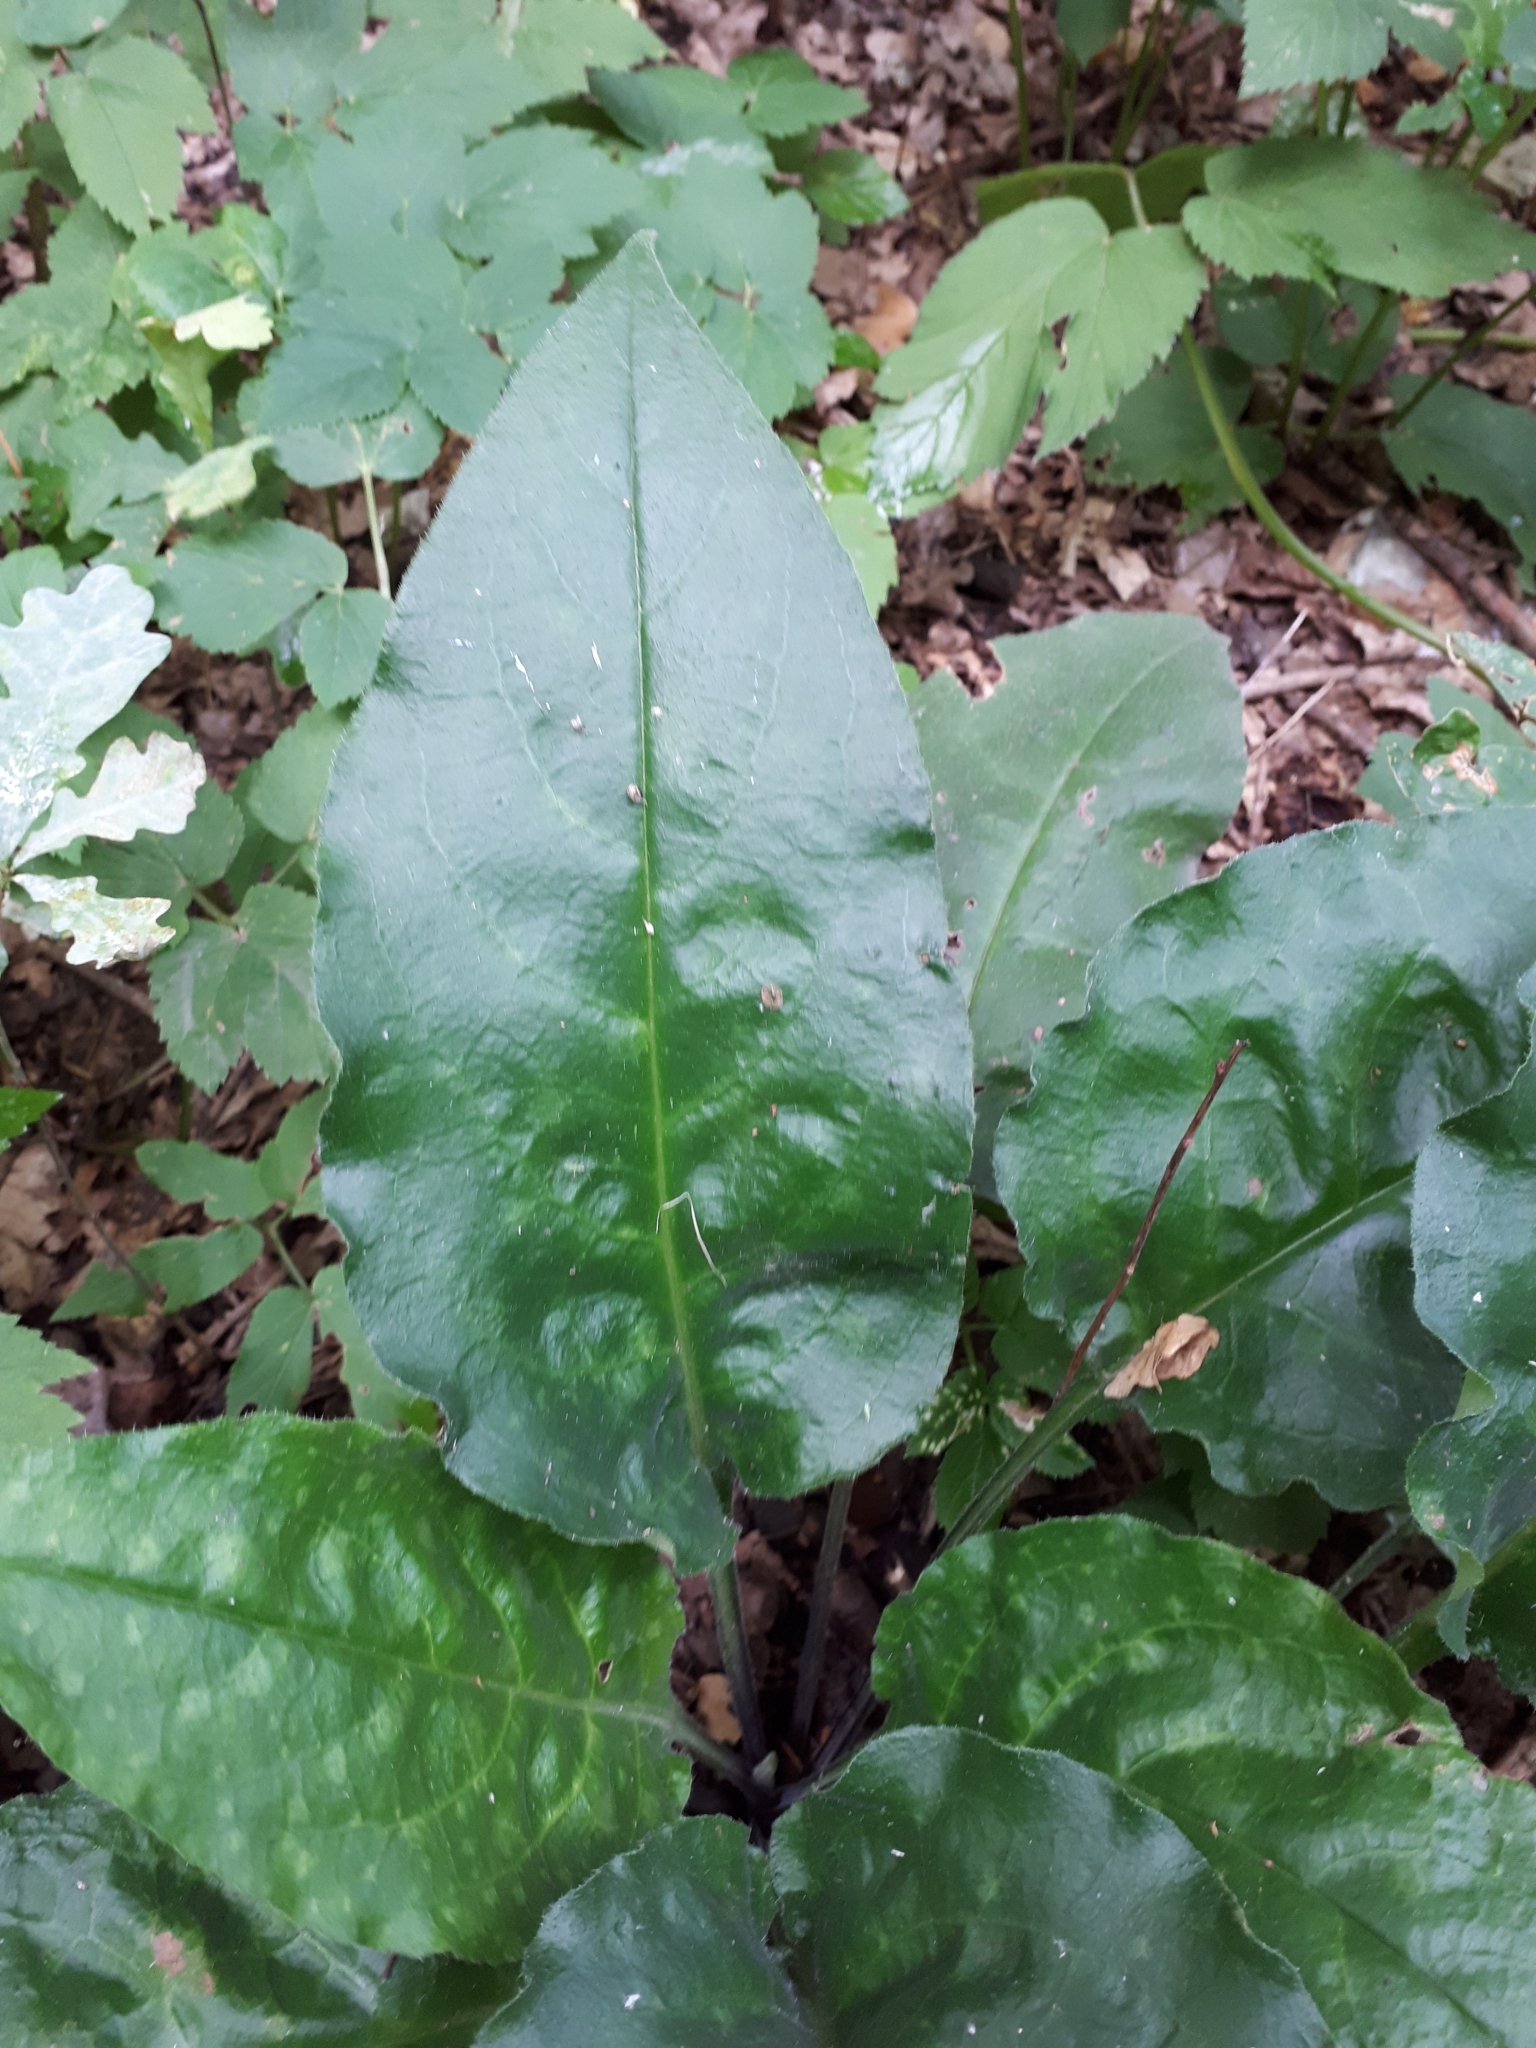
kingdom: Plantae
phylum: Tracheophyta
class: Magnoliopsida
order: Boraginales
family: Boraginaceae
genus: Pulmonaria
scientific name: Pulmonaria obscura
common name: Suffolk lungwort
